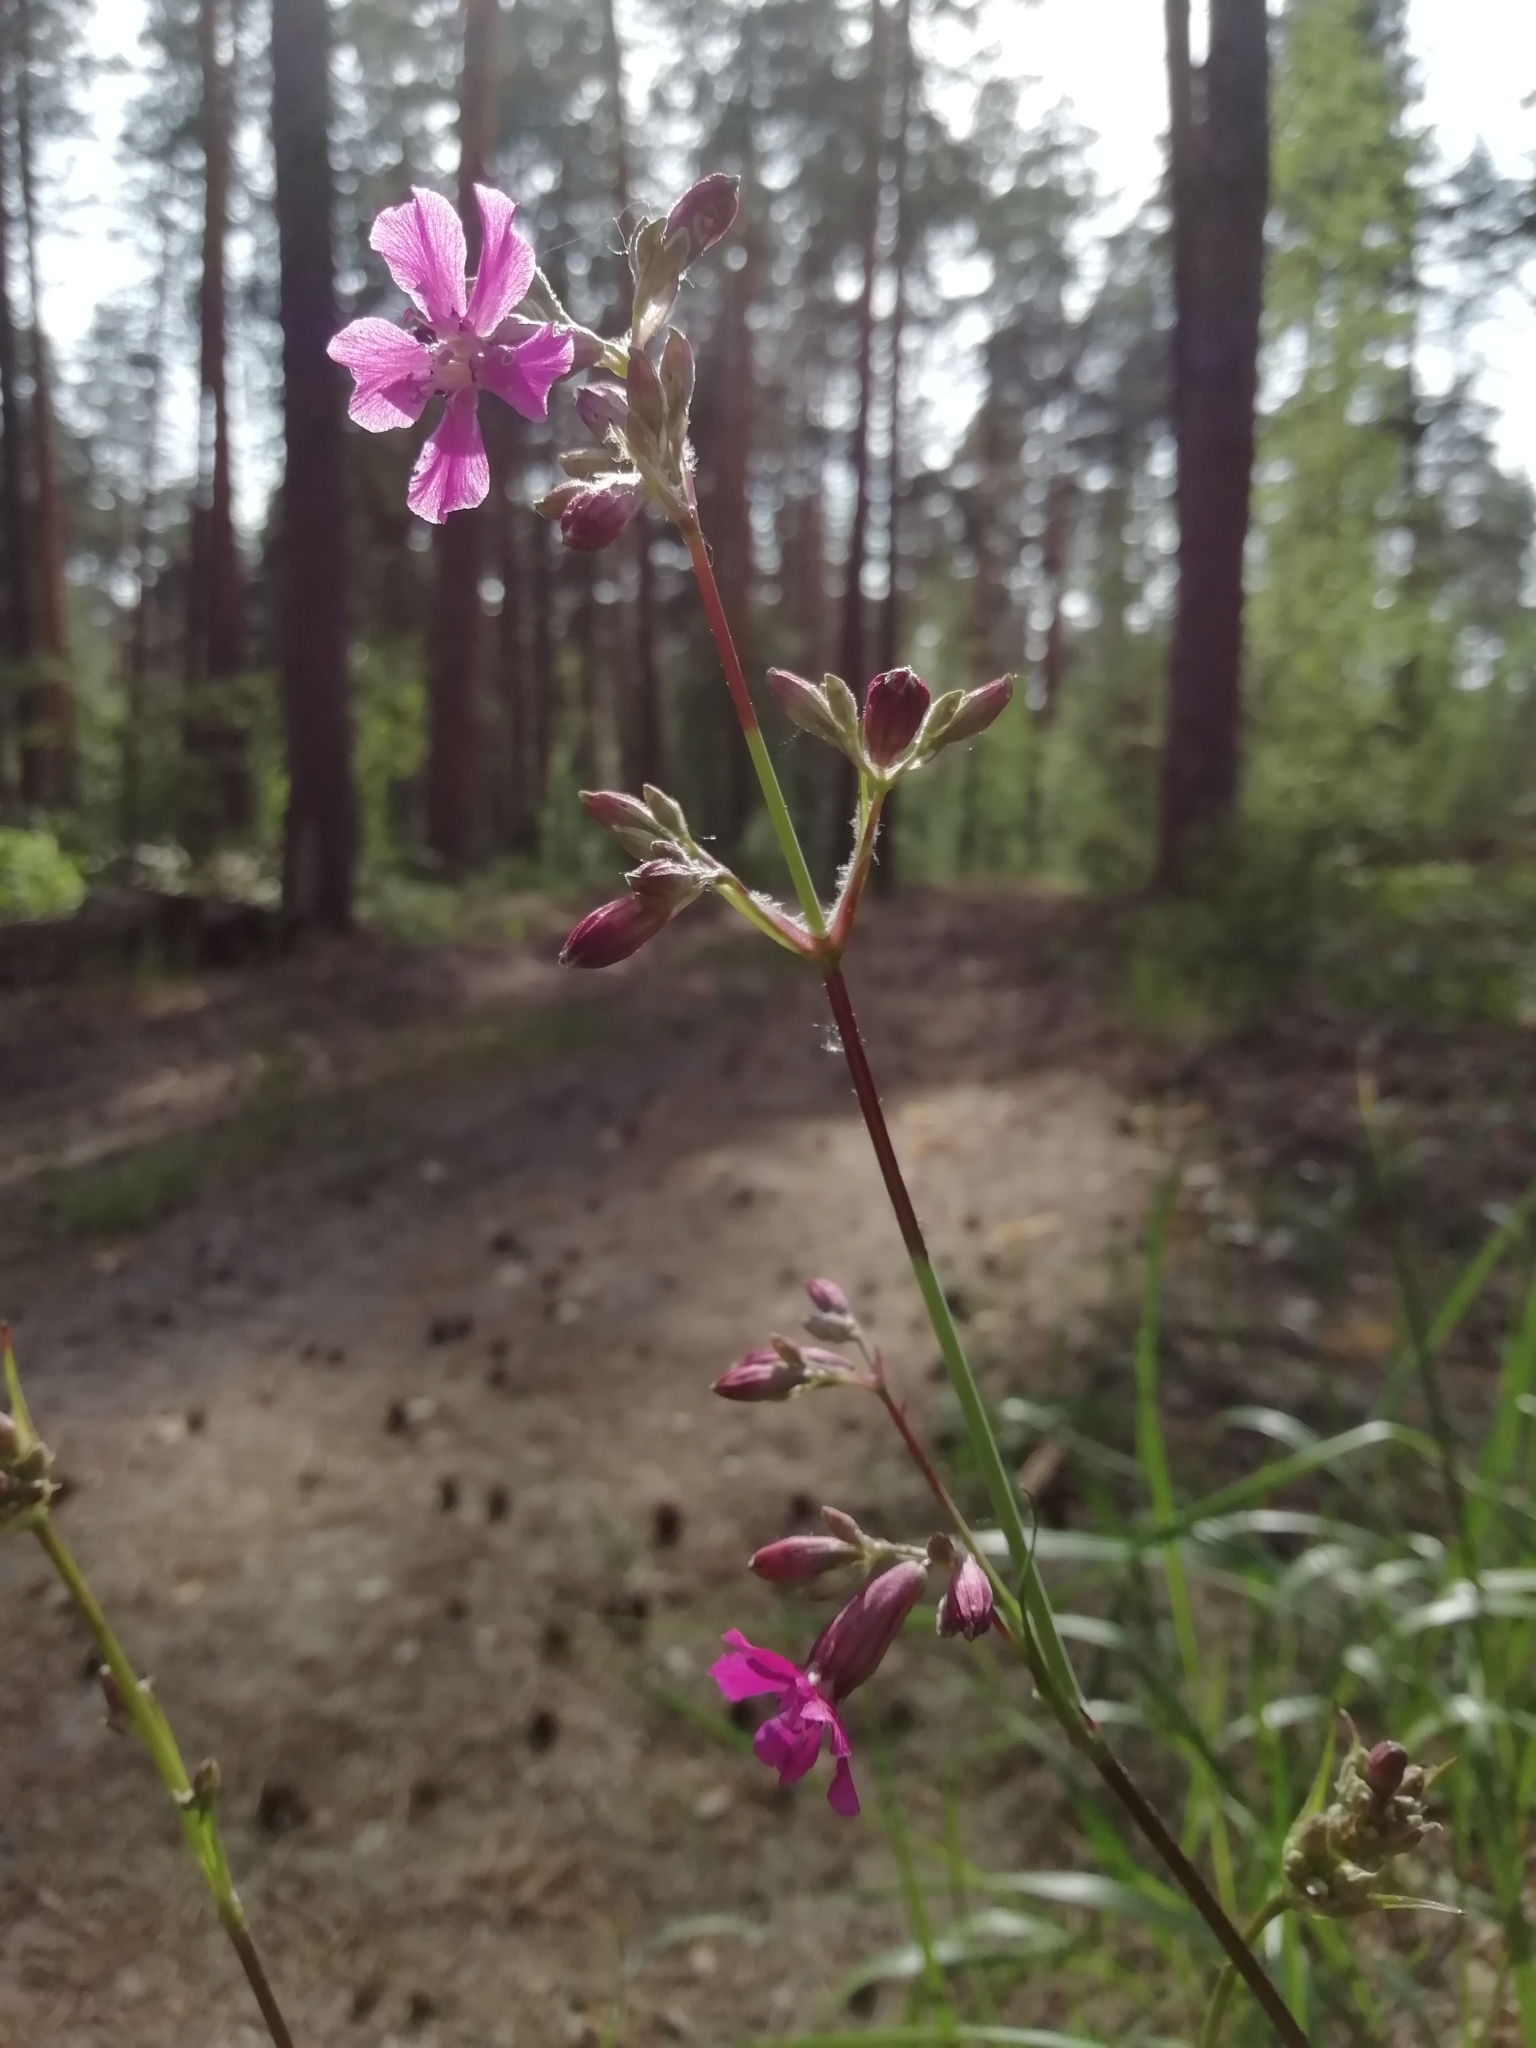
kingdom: Plantae
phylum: Tracheophyta
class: Magnoliopsida
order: Caryophyllales
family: Caryophyllaceae
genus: Viscaria
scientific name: Viscaria vulgaris
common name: Clammy campion
